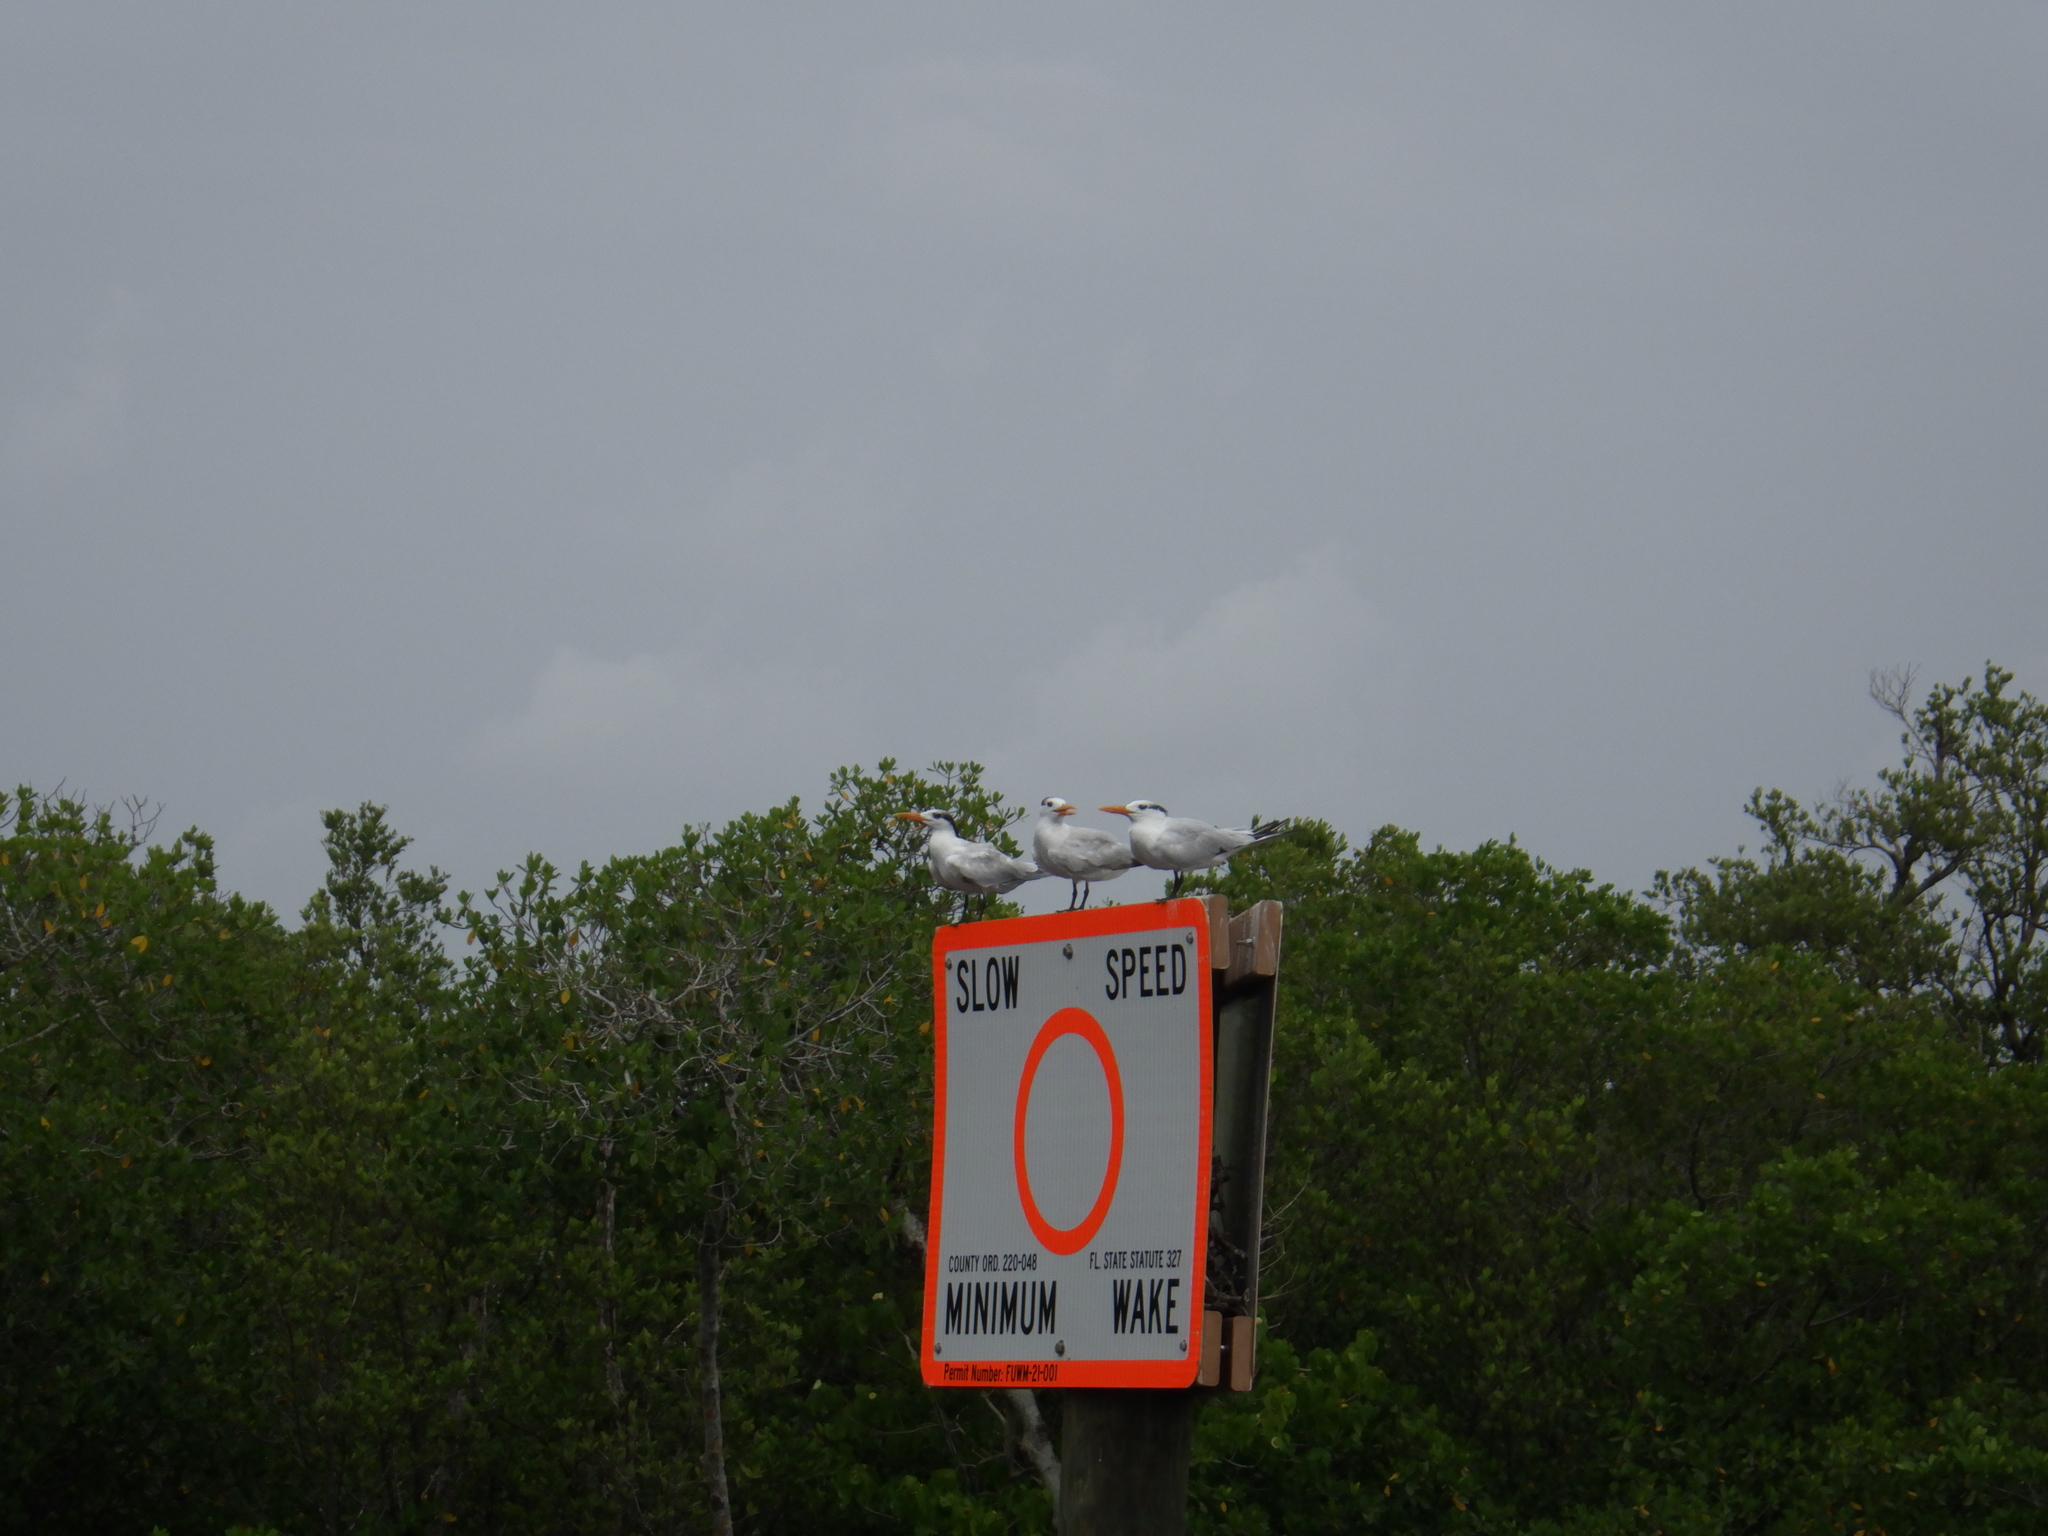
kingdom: Animalia
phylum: Chordata
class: Aves
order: Charadriiformes
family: Laridae
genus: Thalasseus
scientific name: Thalasseus maximus
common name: Royal tern
